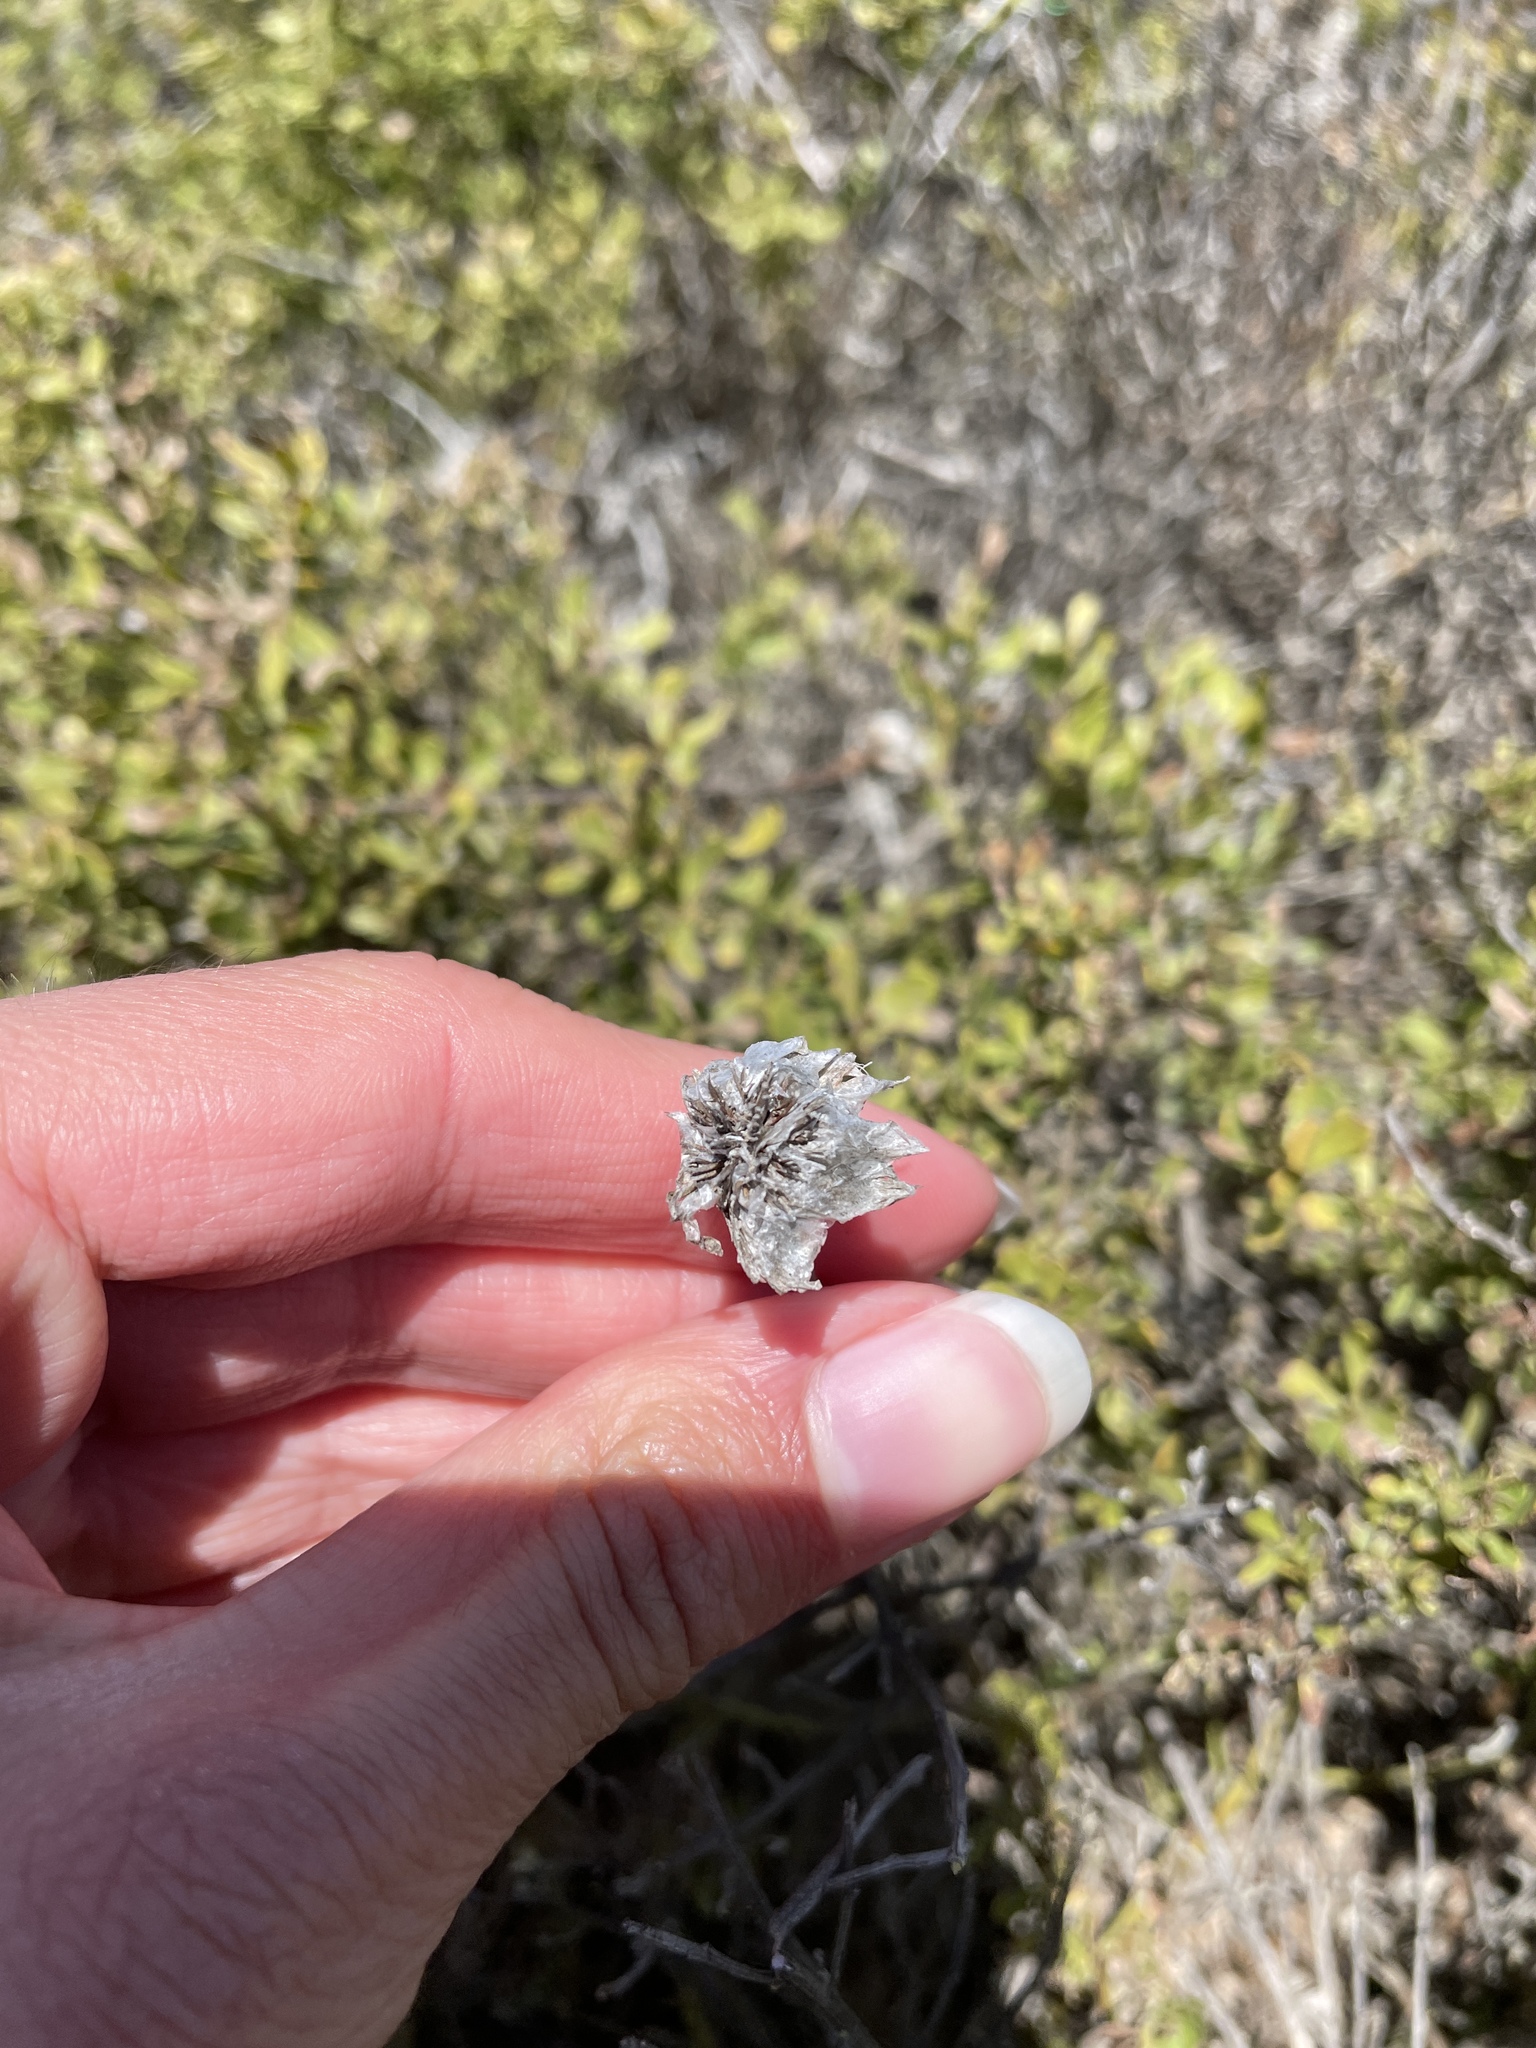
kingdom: Plantae
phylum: Tracheophyta
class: Magnoliopsida
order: Caryophyllales
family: Plumbaginaceae
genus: Armeria
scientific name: Armeria maritima
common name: Thrift
